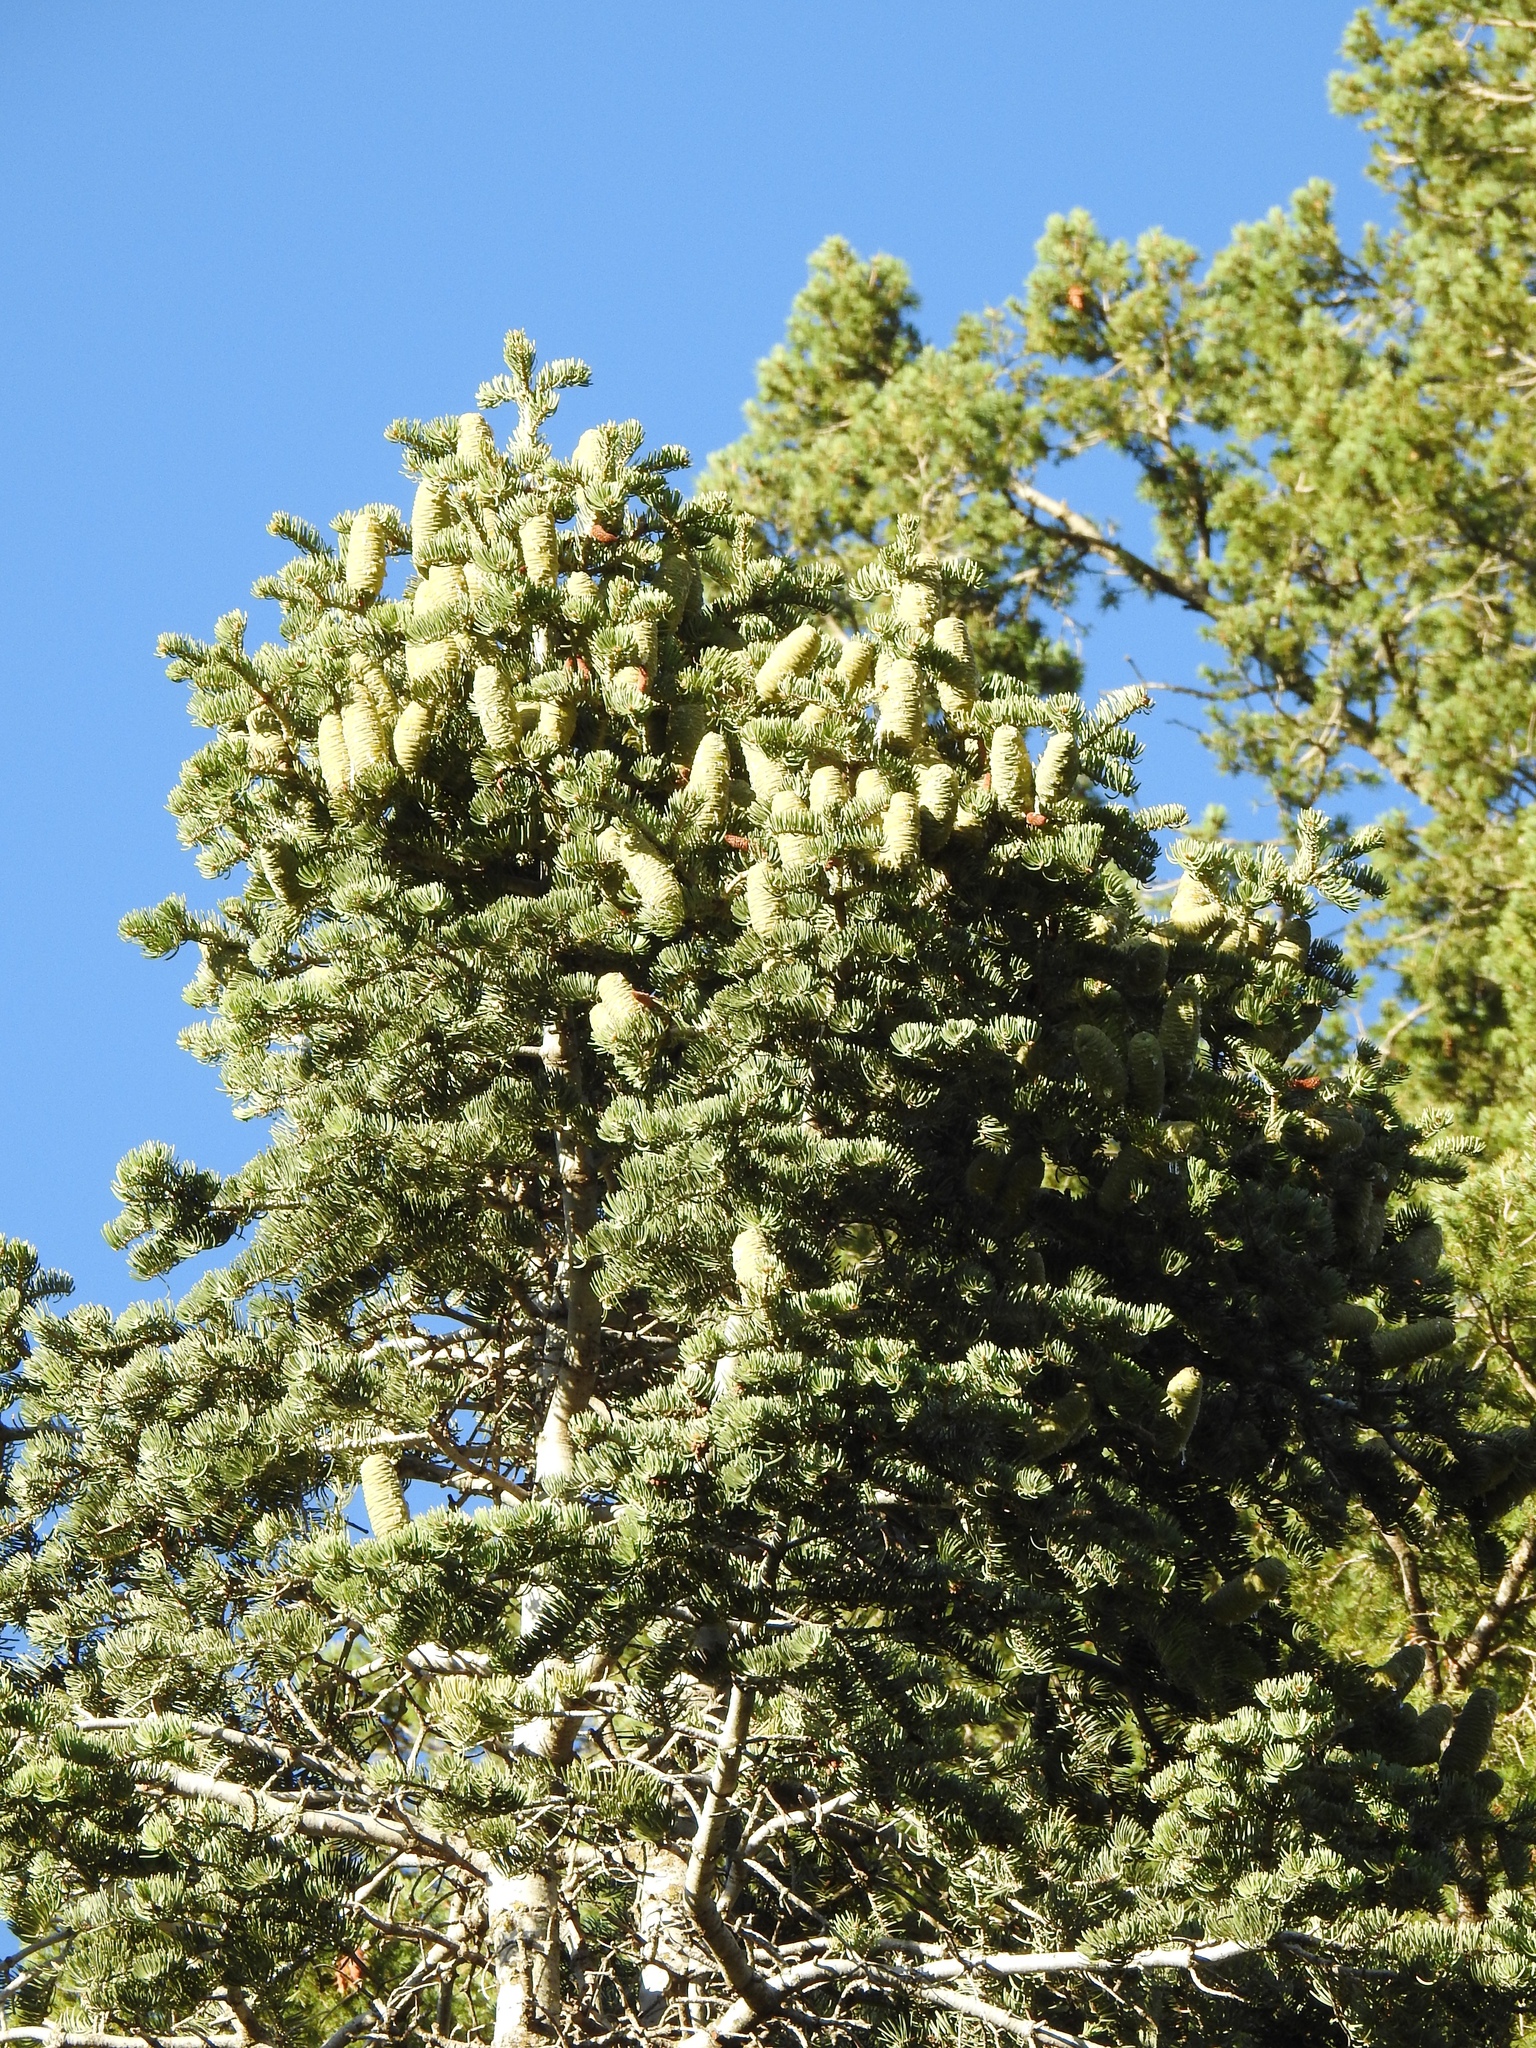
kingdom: Plantae
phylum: Tracheophyta
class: Pinopsida
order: Pinales
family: Pinaceae
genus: Abies
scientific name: Abies concolor
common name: Colorado fir
